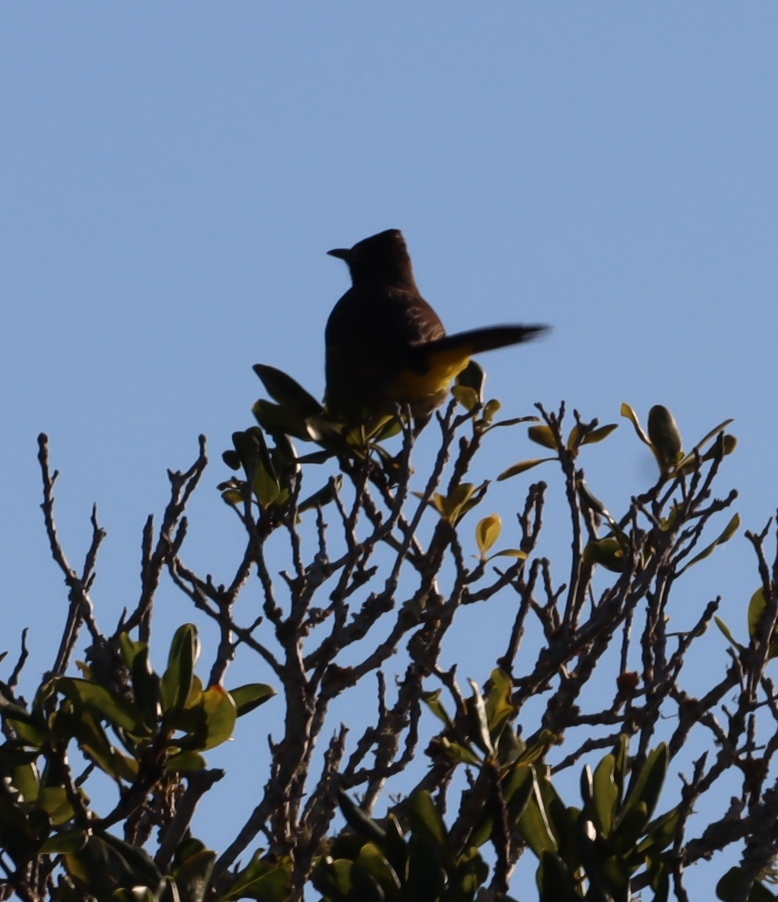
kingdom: Animalia
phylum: Chordata
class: Aves
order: Passeriformes
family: Pycnonotidae
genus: Pycnonotus
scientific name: Pycnonotus capensis
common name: Cape bulbul
